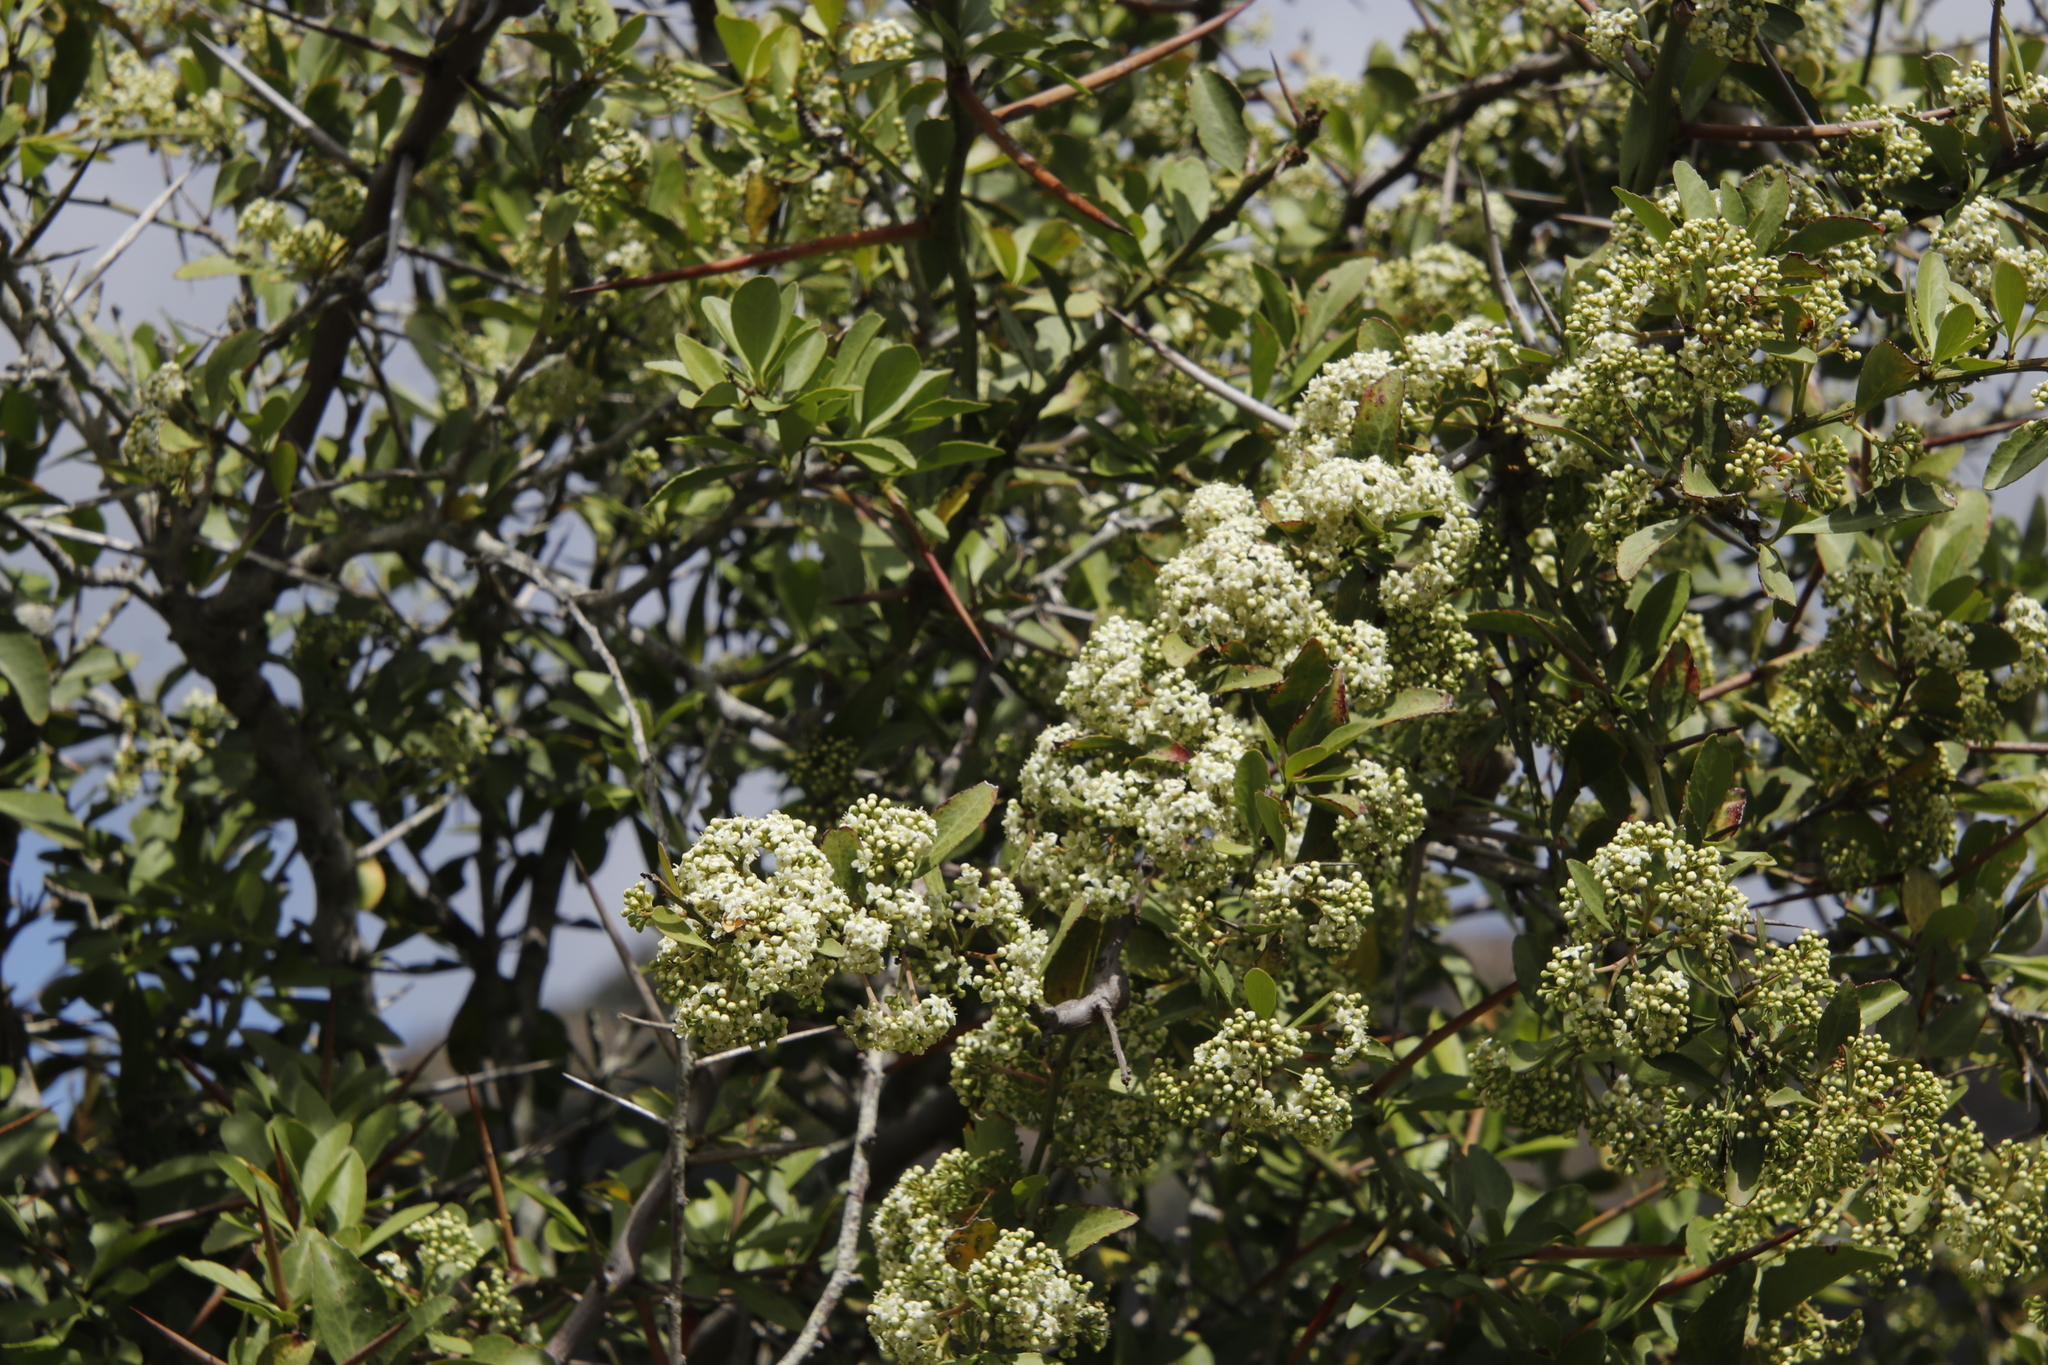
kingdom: Plantae
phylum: Tracheophyta
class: Magnoliopsida
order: Celastrales
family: Celastraceae
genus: Gymnosporia
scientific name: Gymnosporia buxifolia
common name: Common spike-thorn
